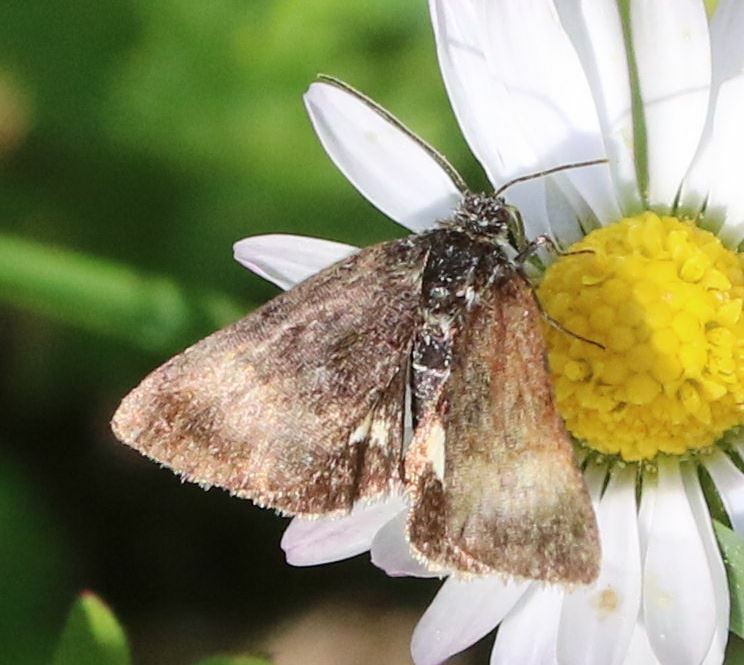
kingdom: Animalia
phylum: Arthropoda
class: Insecta
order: Lepidoptera
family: Noctuidae
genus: Panemeria
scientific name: Panemeria tenebrata
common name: Small yellow underwing
